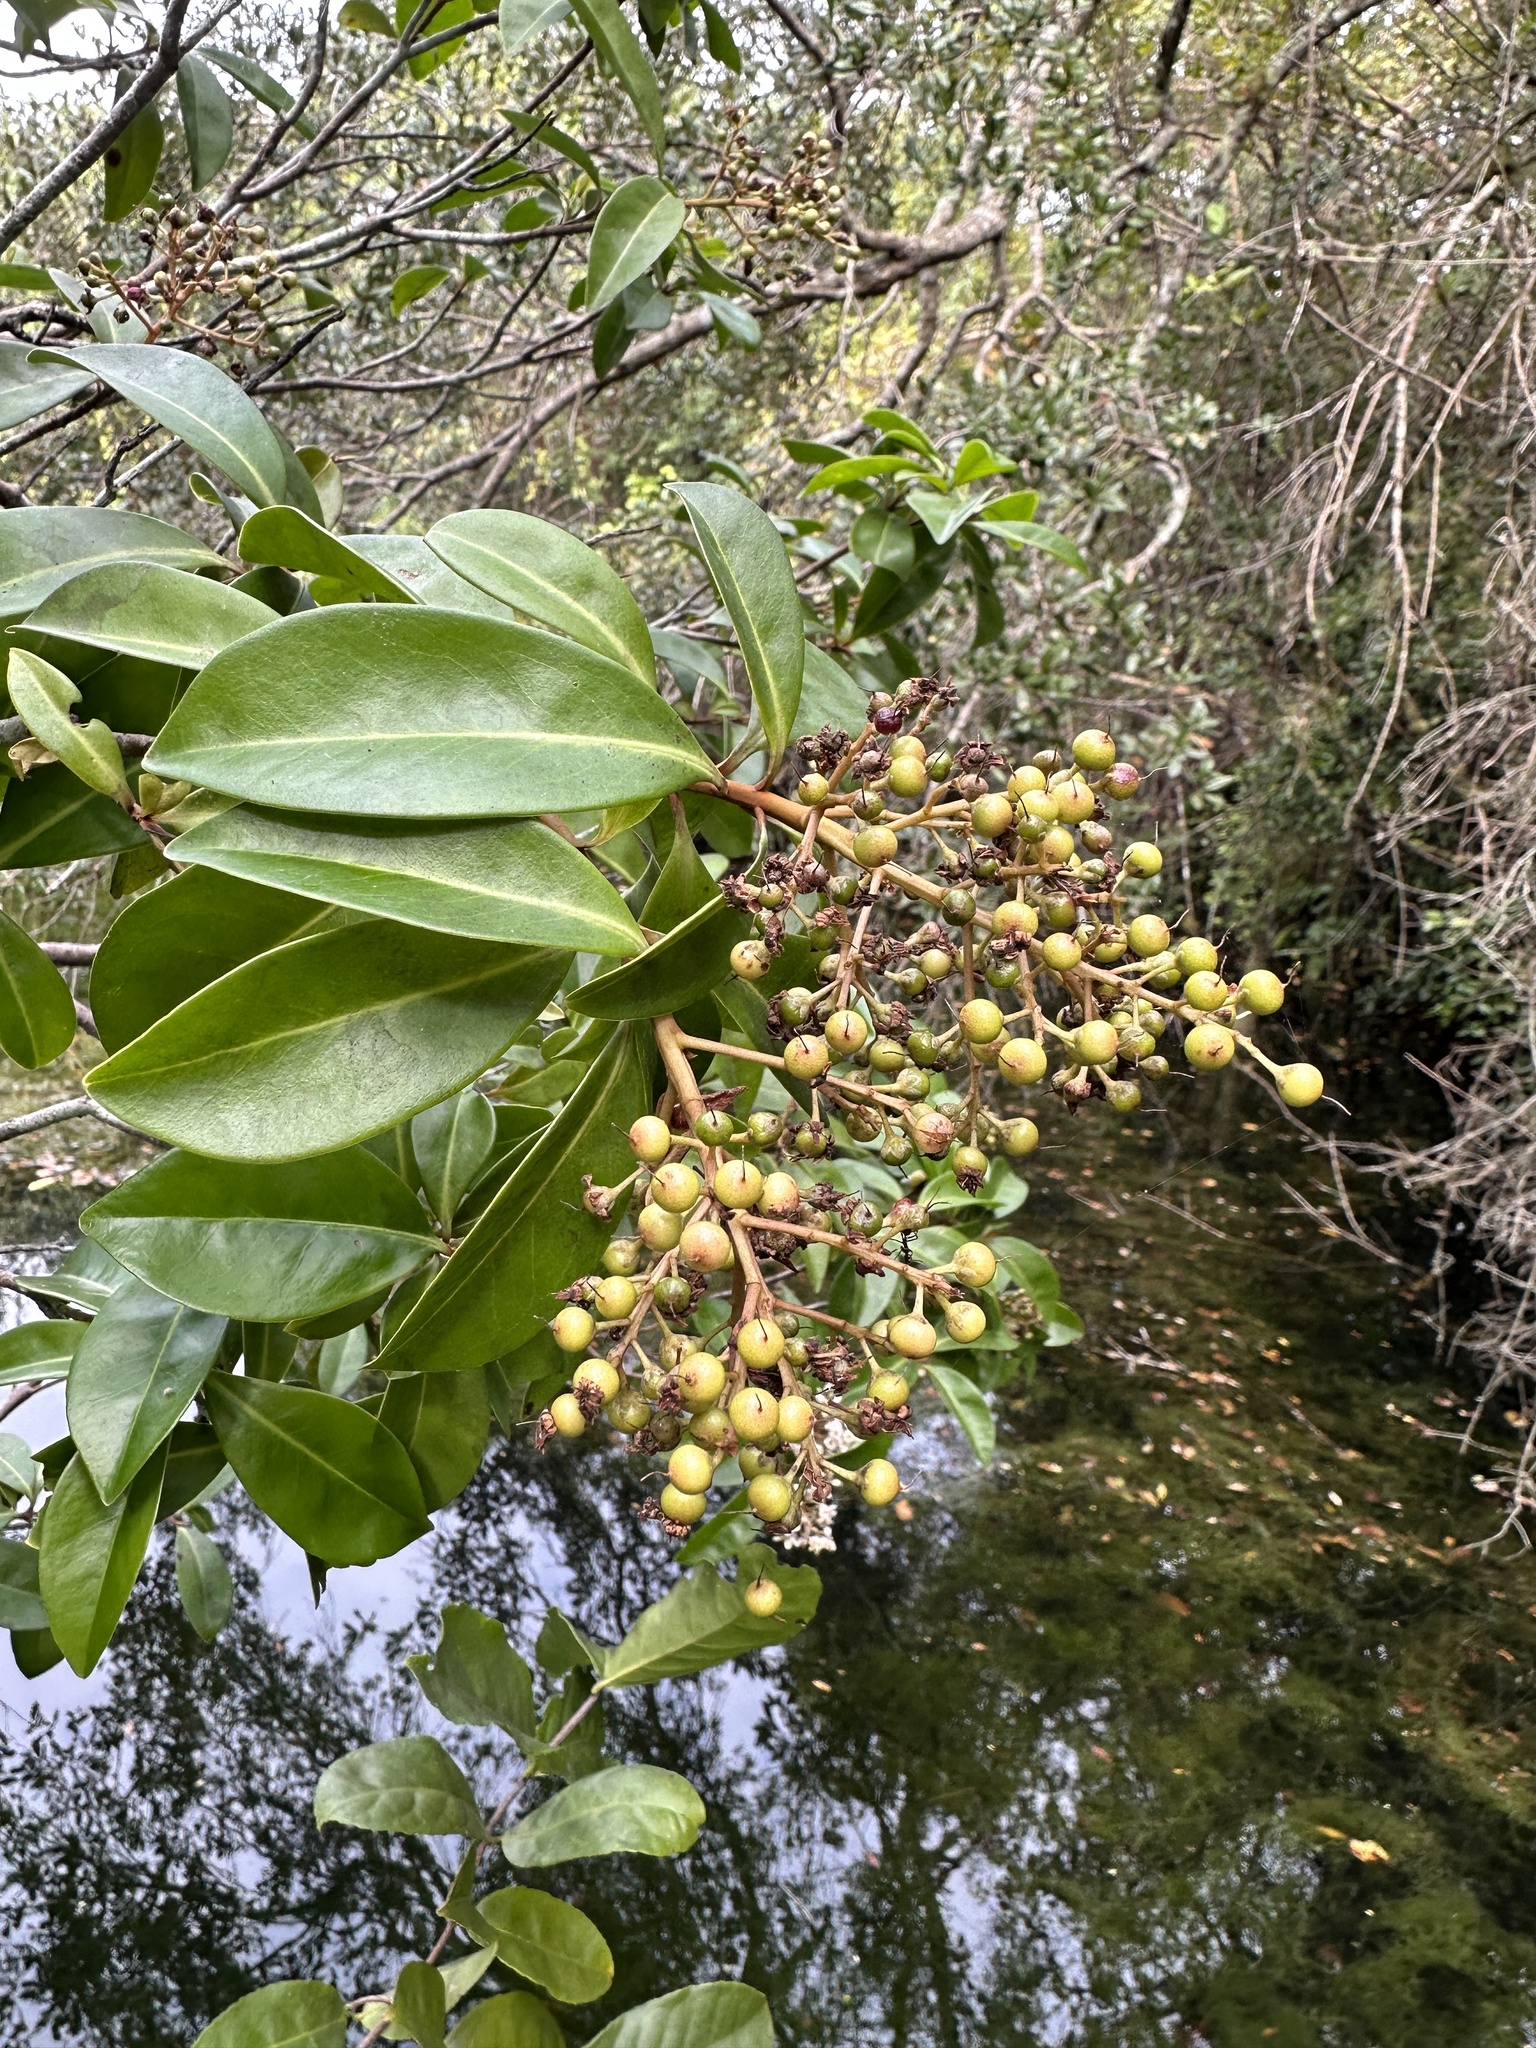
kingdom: Plantae
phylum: Tracheophyta
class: Magnoliopsida
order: Ericales
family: Primulaceae
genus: Ardisia
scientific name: Ardisia escallonioides
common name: Island marlberry
